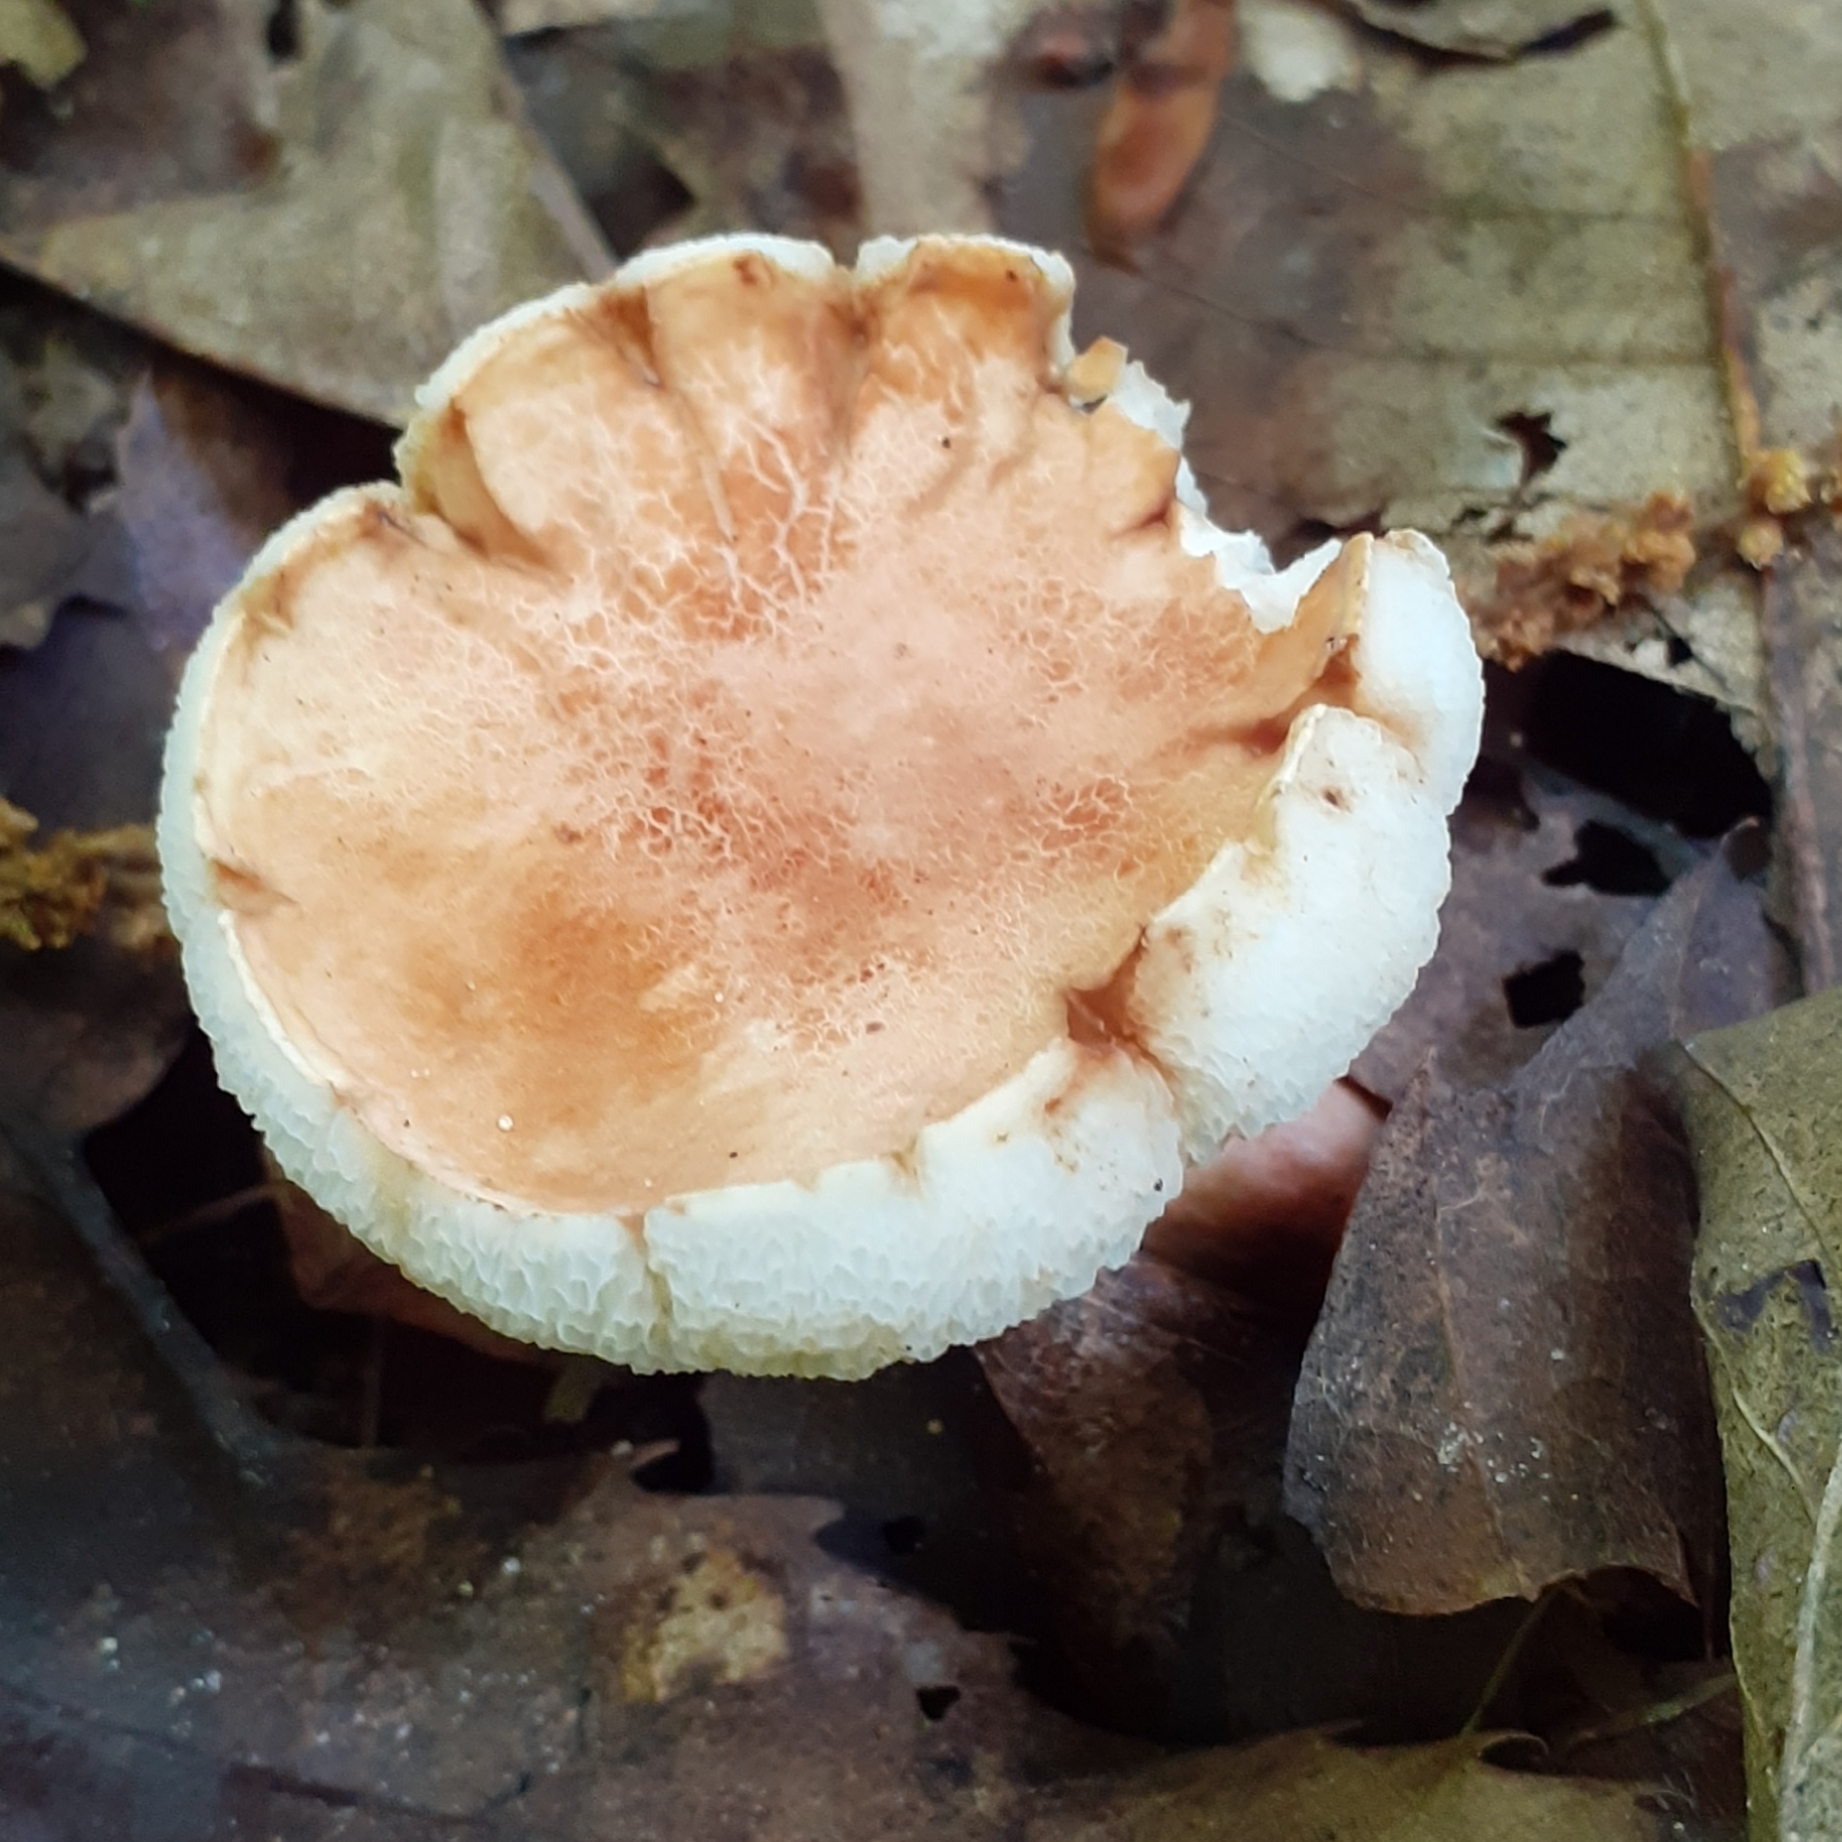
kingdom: Fungi
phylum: Basidiomycota
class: Agaricomycetes
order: Boletales
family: Gyroporaceae
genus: Gyroporus
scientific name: Gyroporus castaneus
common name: Chestnut bolete
